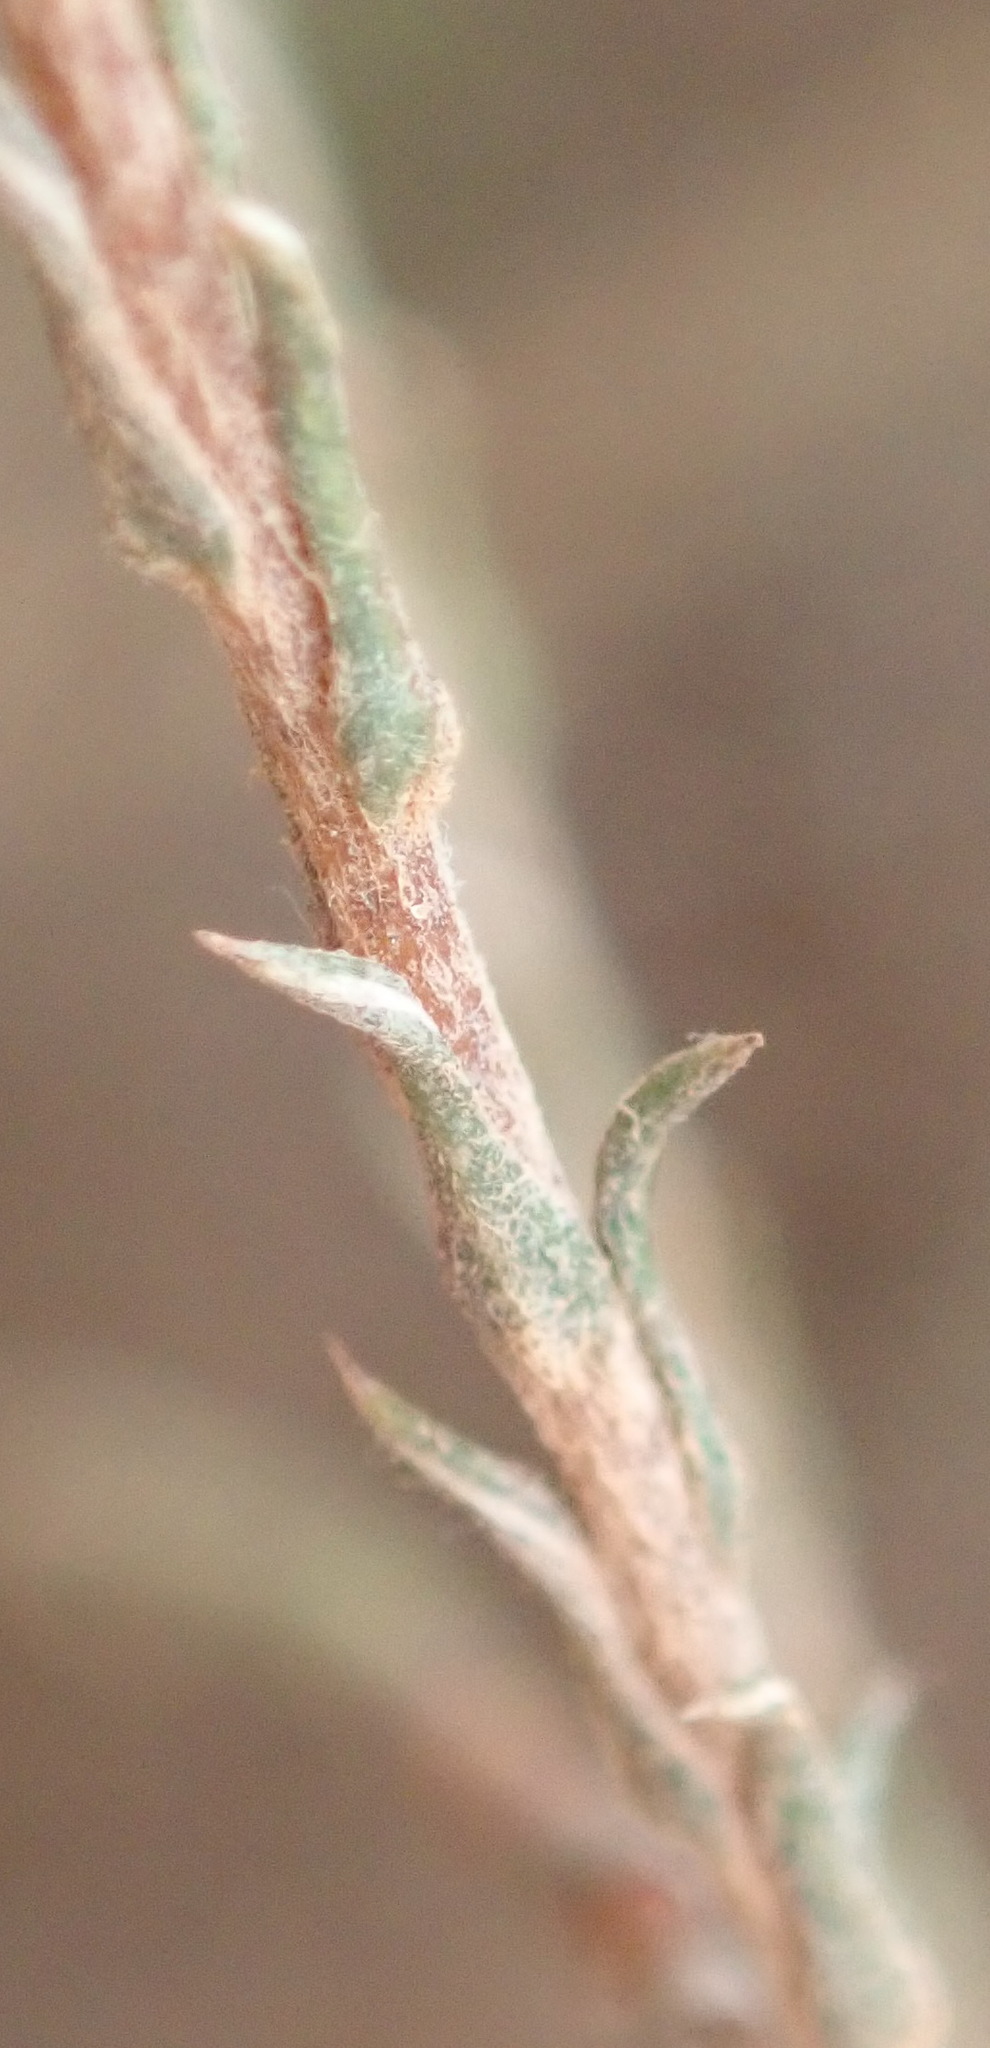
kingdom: Plantae
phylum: Tracheophyta
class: Magnoliopsida
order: Asterales
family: Asteraceae
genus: Stoebe
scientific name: Stoebe capitata
